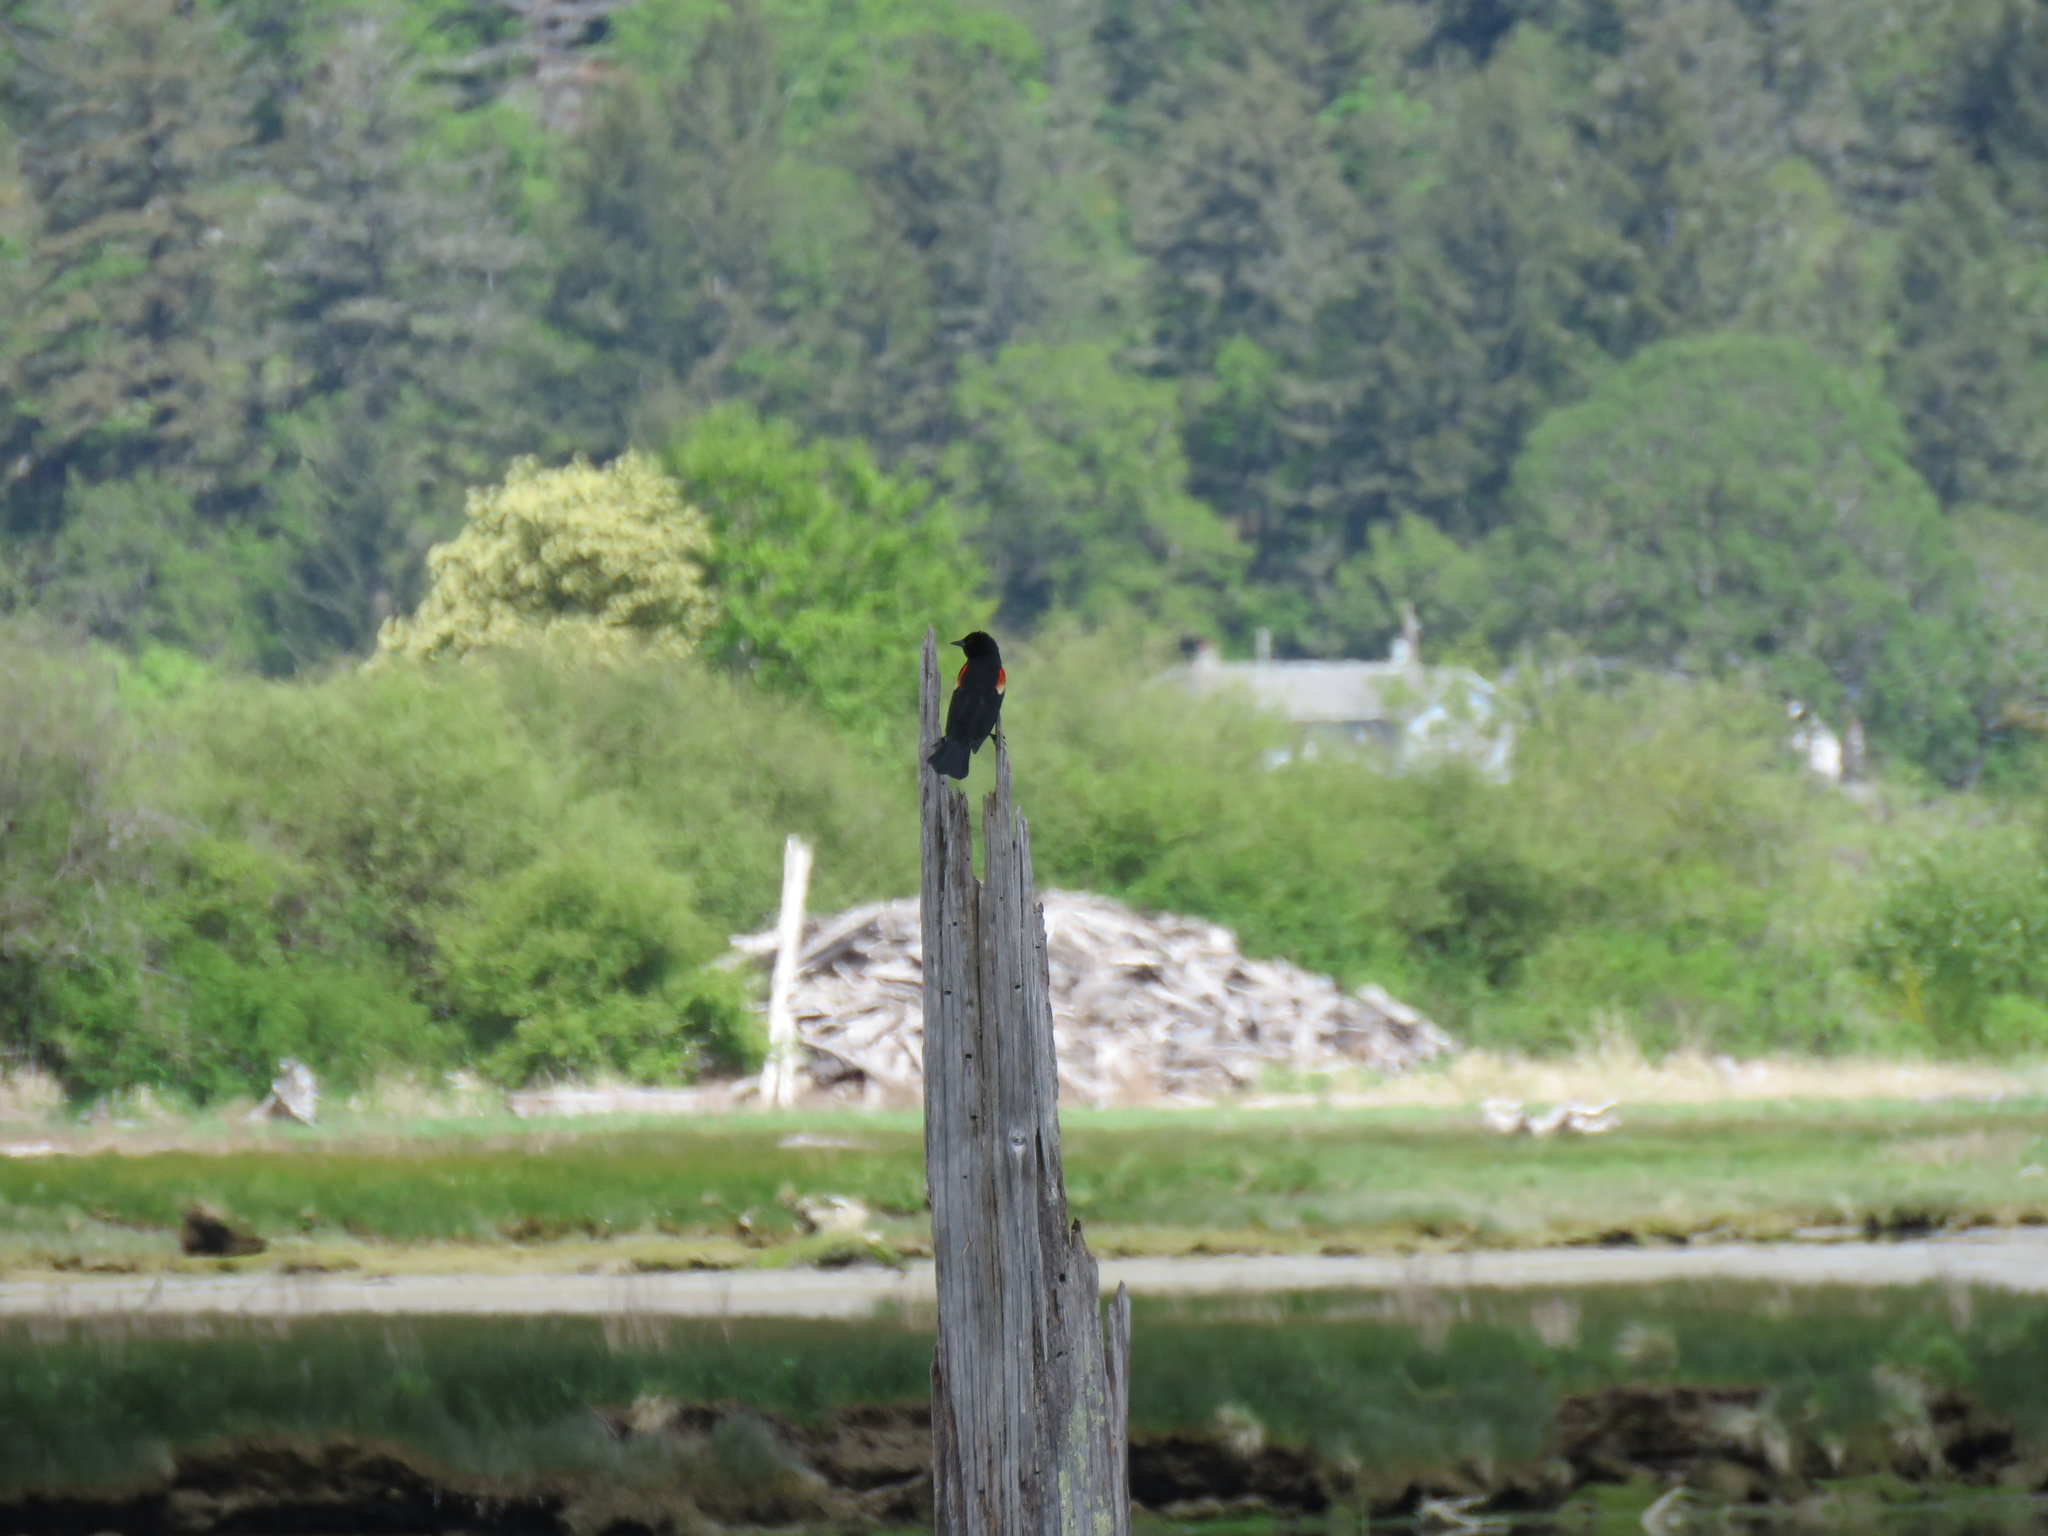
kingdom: Animalia
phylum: Chordata
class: Aves
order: Passeriformes
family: Icteridae
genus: Agelaius
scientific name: Agelaius phoeniceus
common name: Red-winged blackbird
